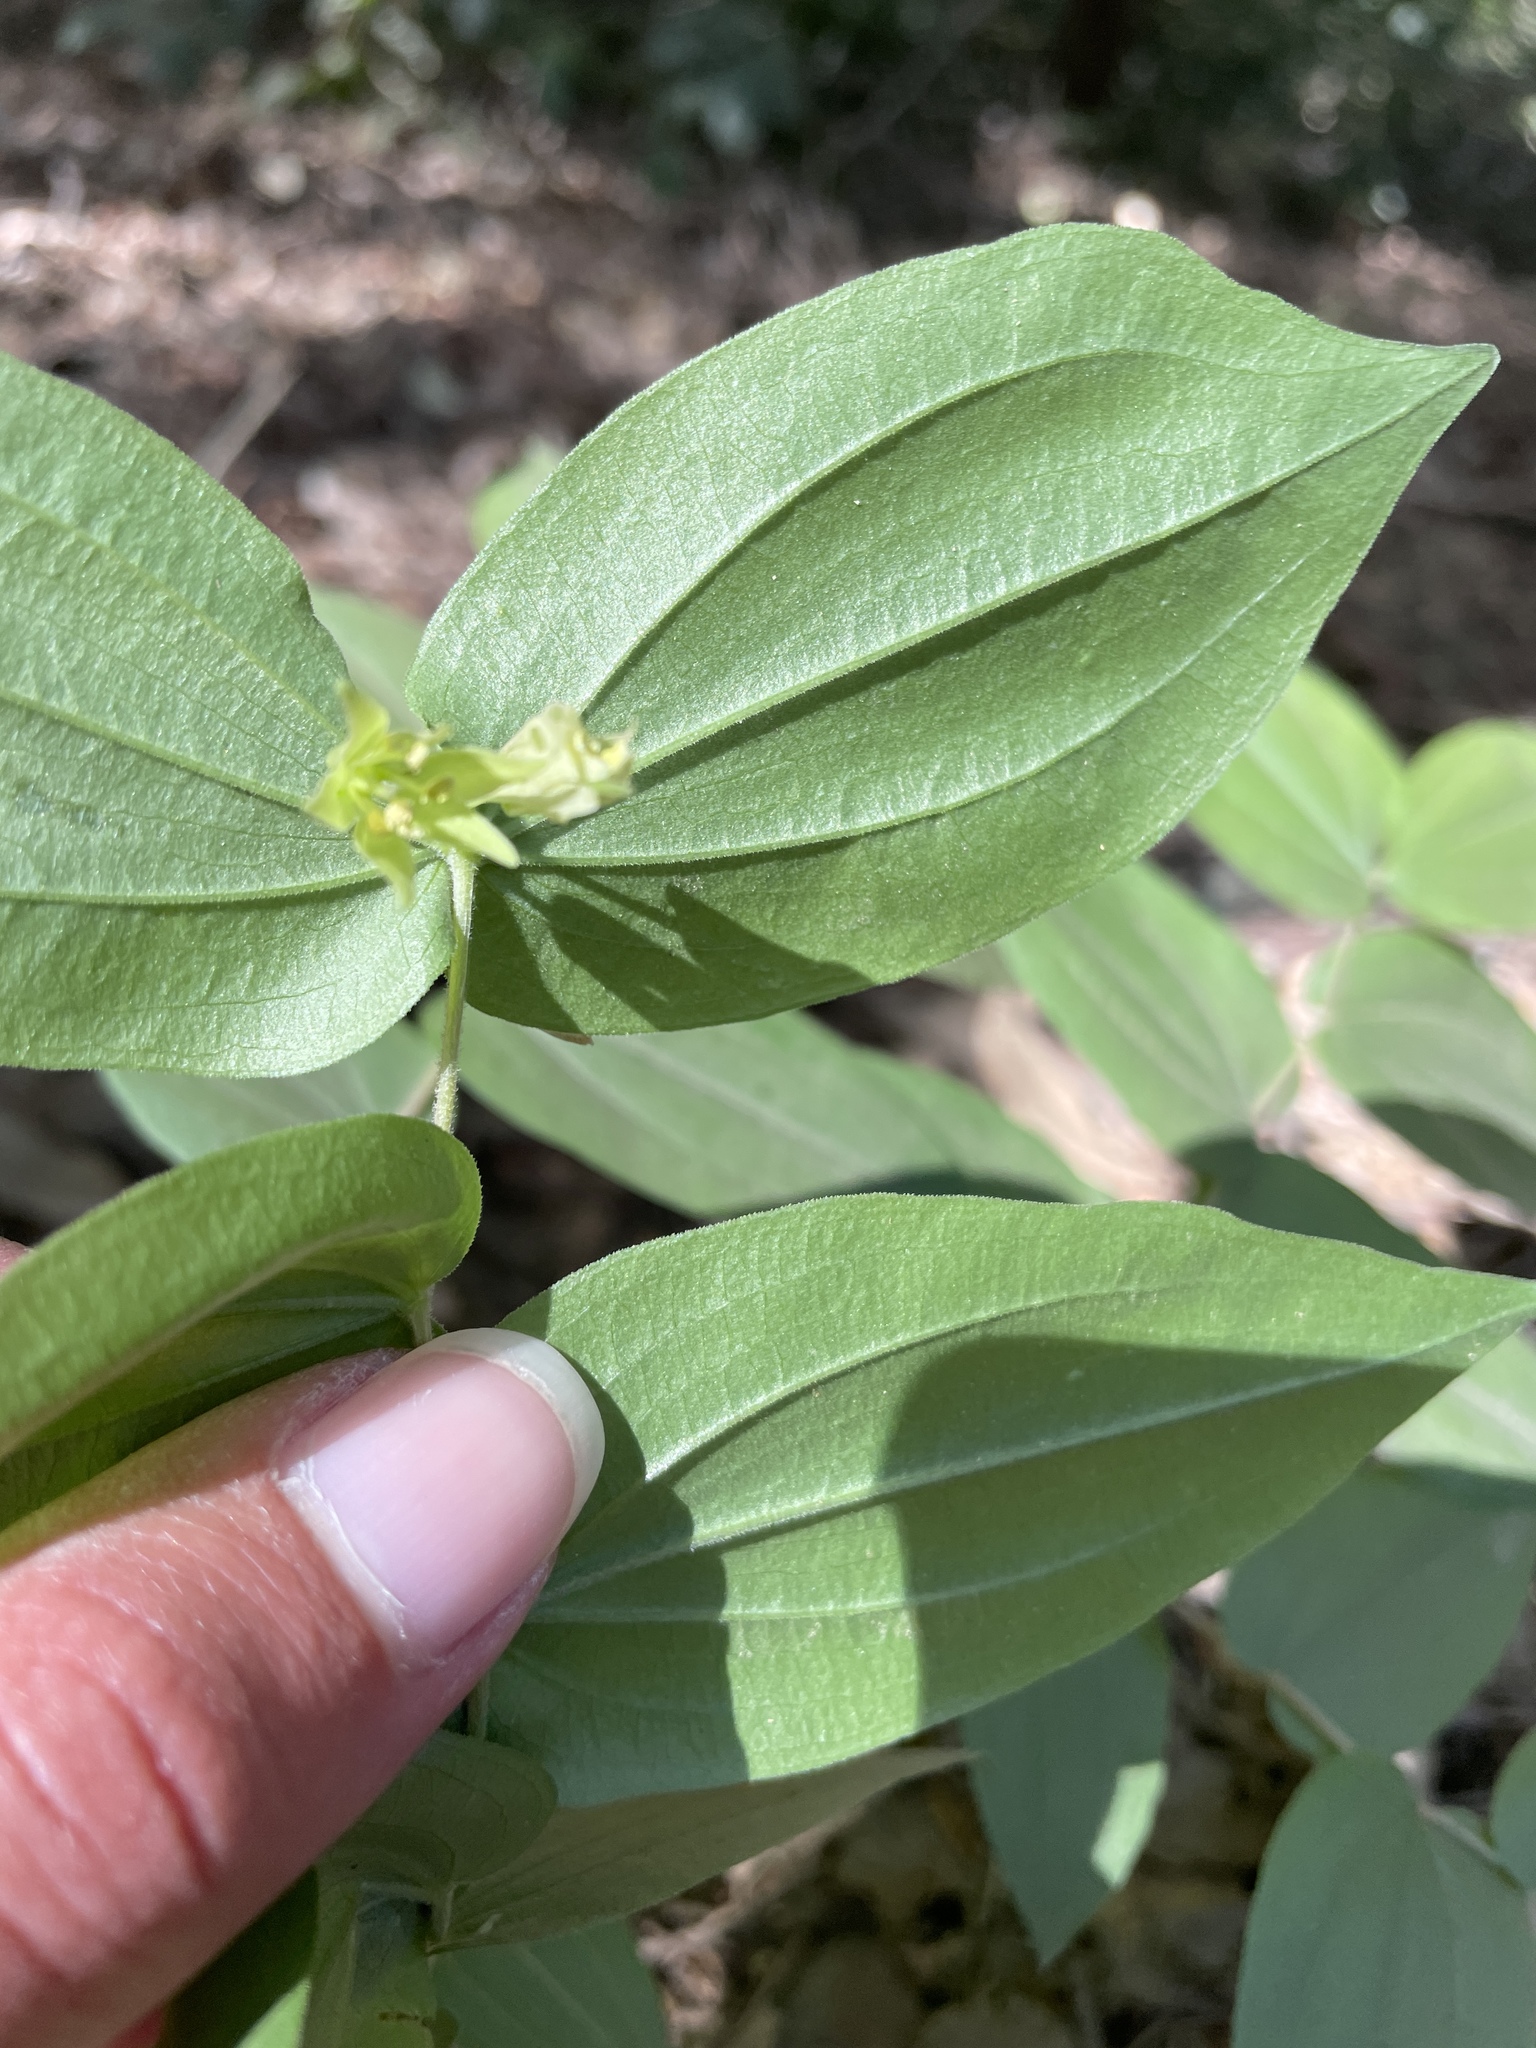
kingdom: Plantae
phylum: Tracheophyta
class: Liliopsida
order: Liliales
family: Liliaceae
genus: Prosartes
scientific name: Prosartes hookeri
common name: Fairy-bells
